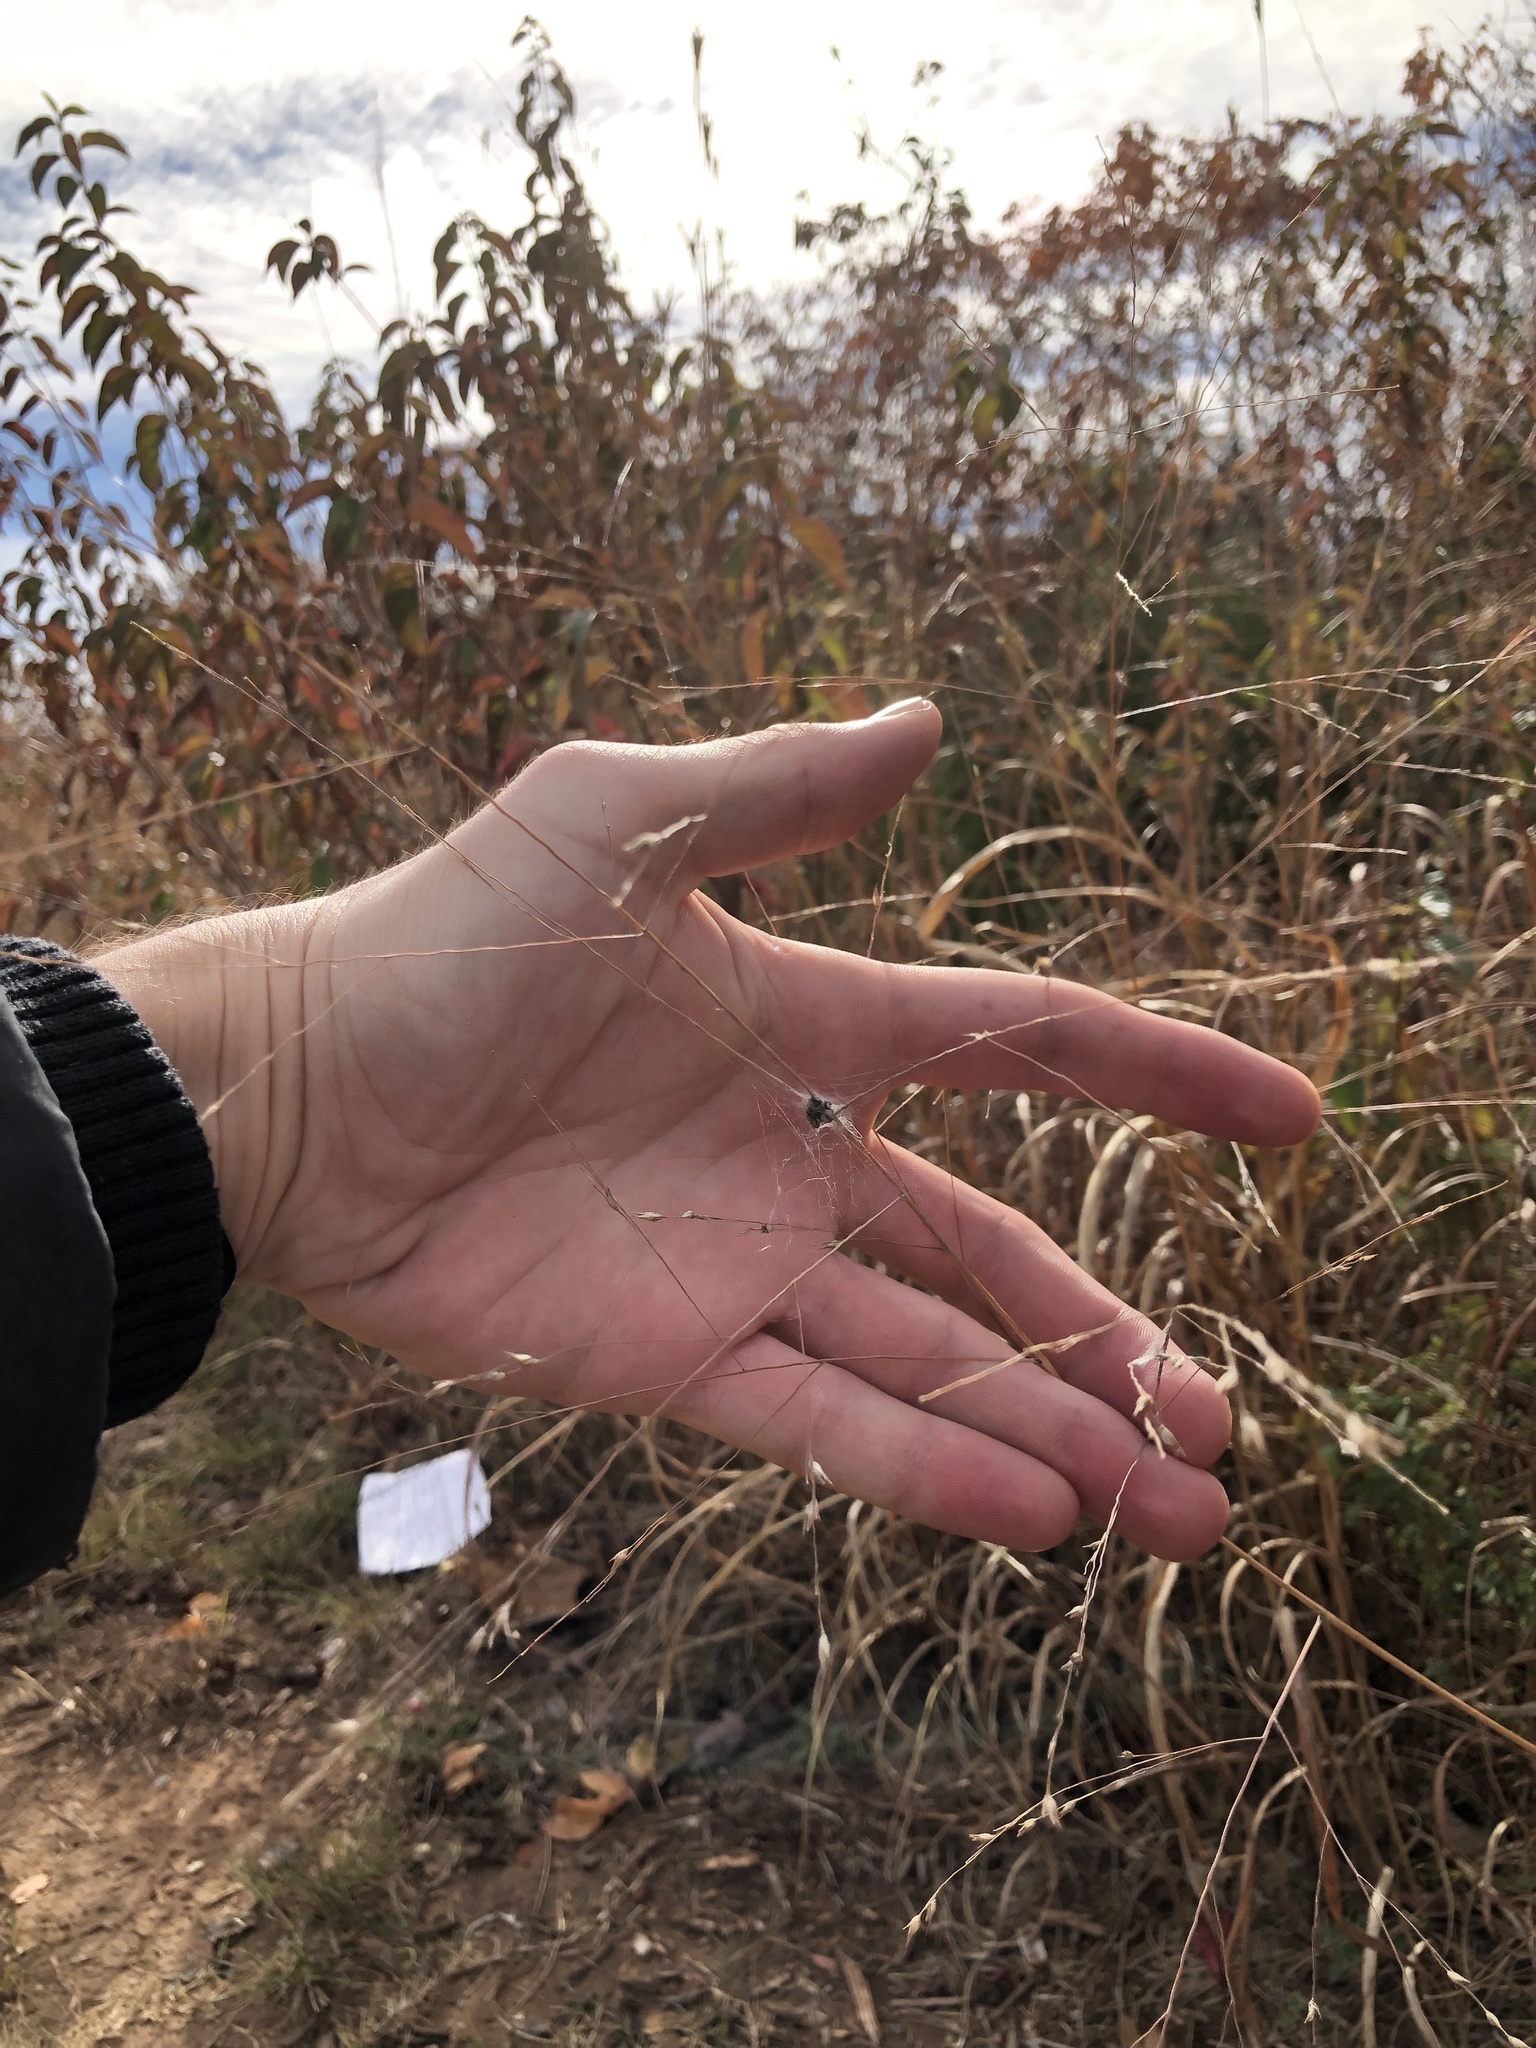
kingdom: Plantae
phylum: Tracheophyta
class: Liliopsida
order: Poales
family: Poaceae
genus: Panicum
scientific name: Panicum virgatum
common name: Switchgrass
